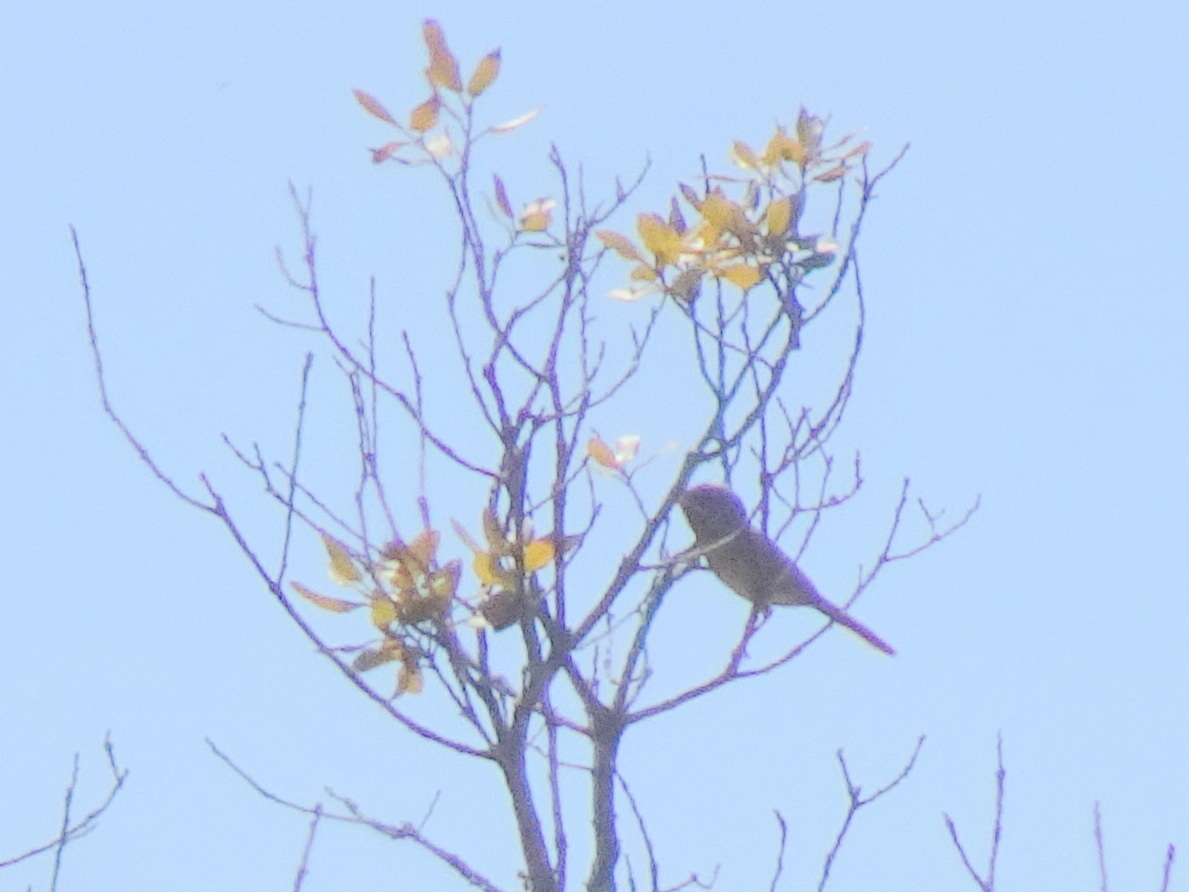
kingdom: Animalia
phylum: Chordata
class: Aves
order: Passeriformes
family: Sylviidae
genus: Curruca
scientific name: Curruca iberiae
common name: Western subalpine warbler
